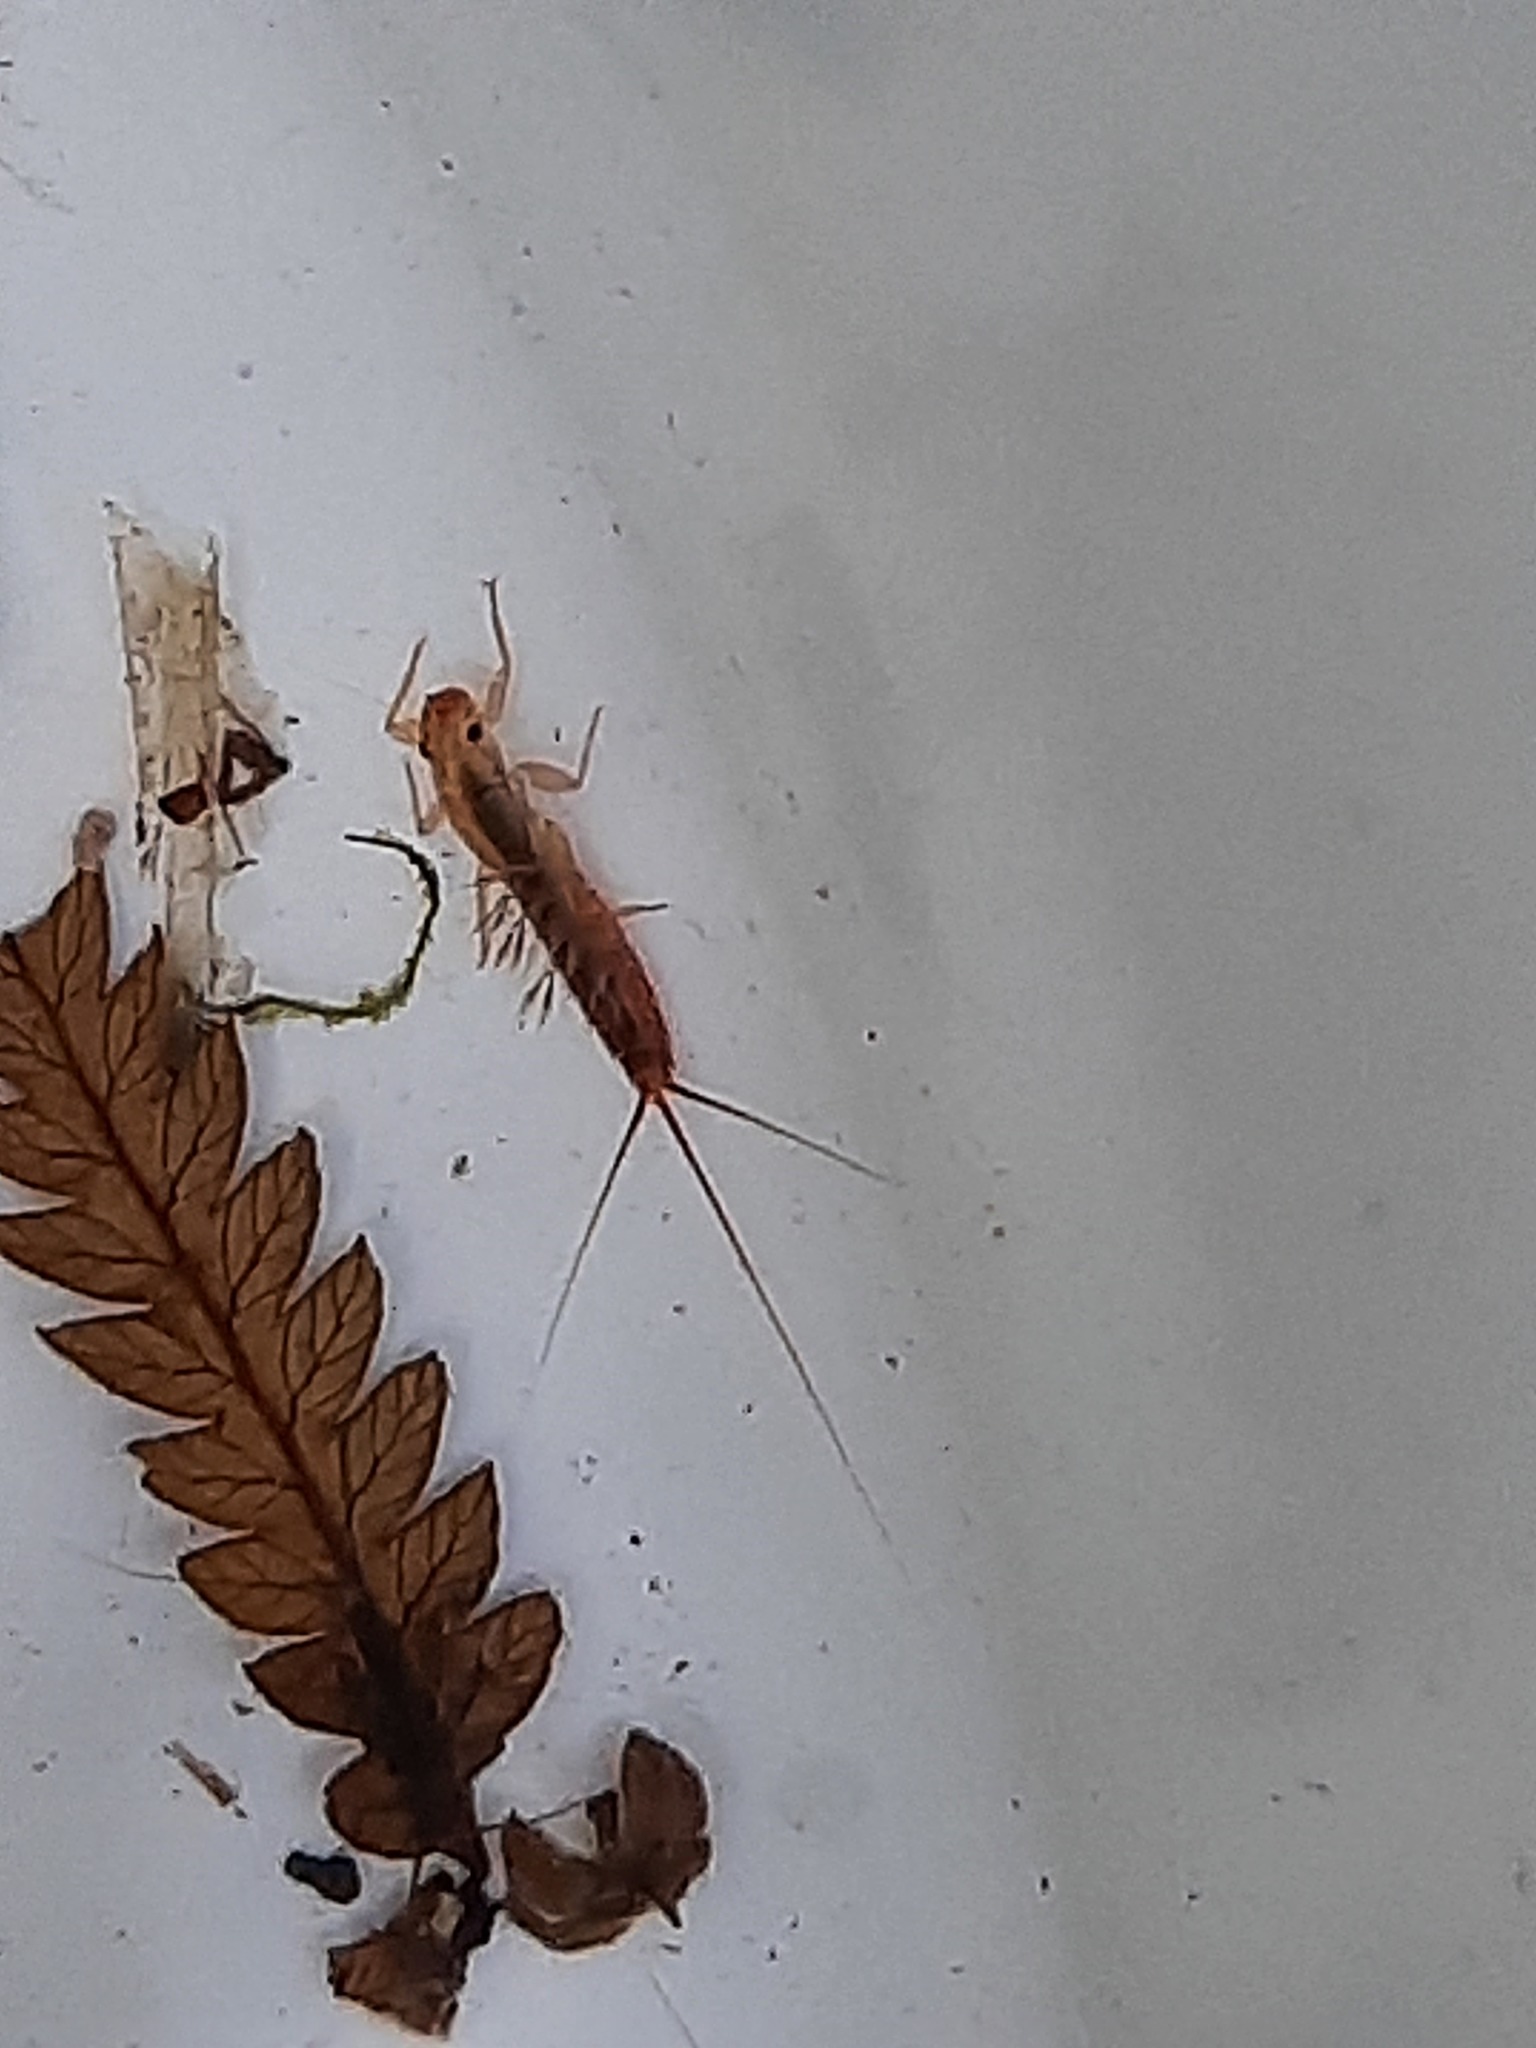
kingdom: Animalia
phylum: Arthropoda
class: Insecta
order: Ephemeroptera
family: Leptophlebiidae
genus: Acanthophlebia
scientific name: Acanthophlebia cruentata
